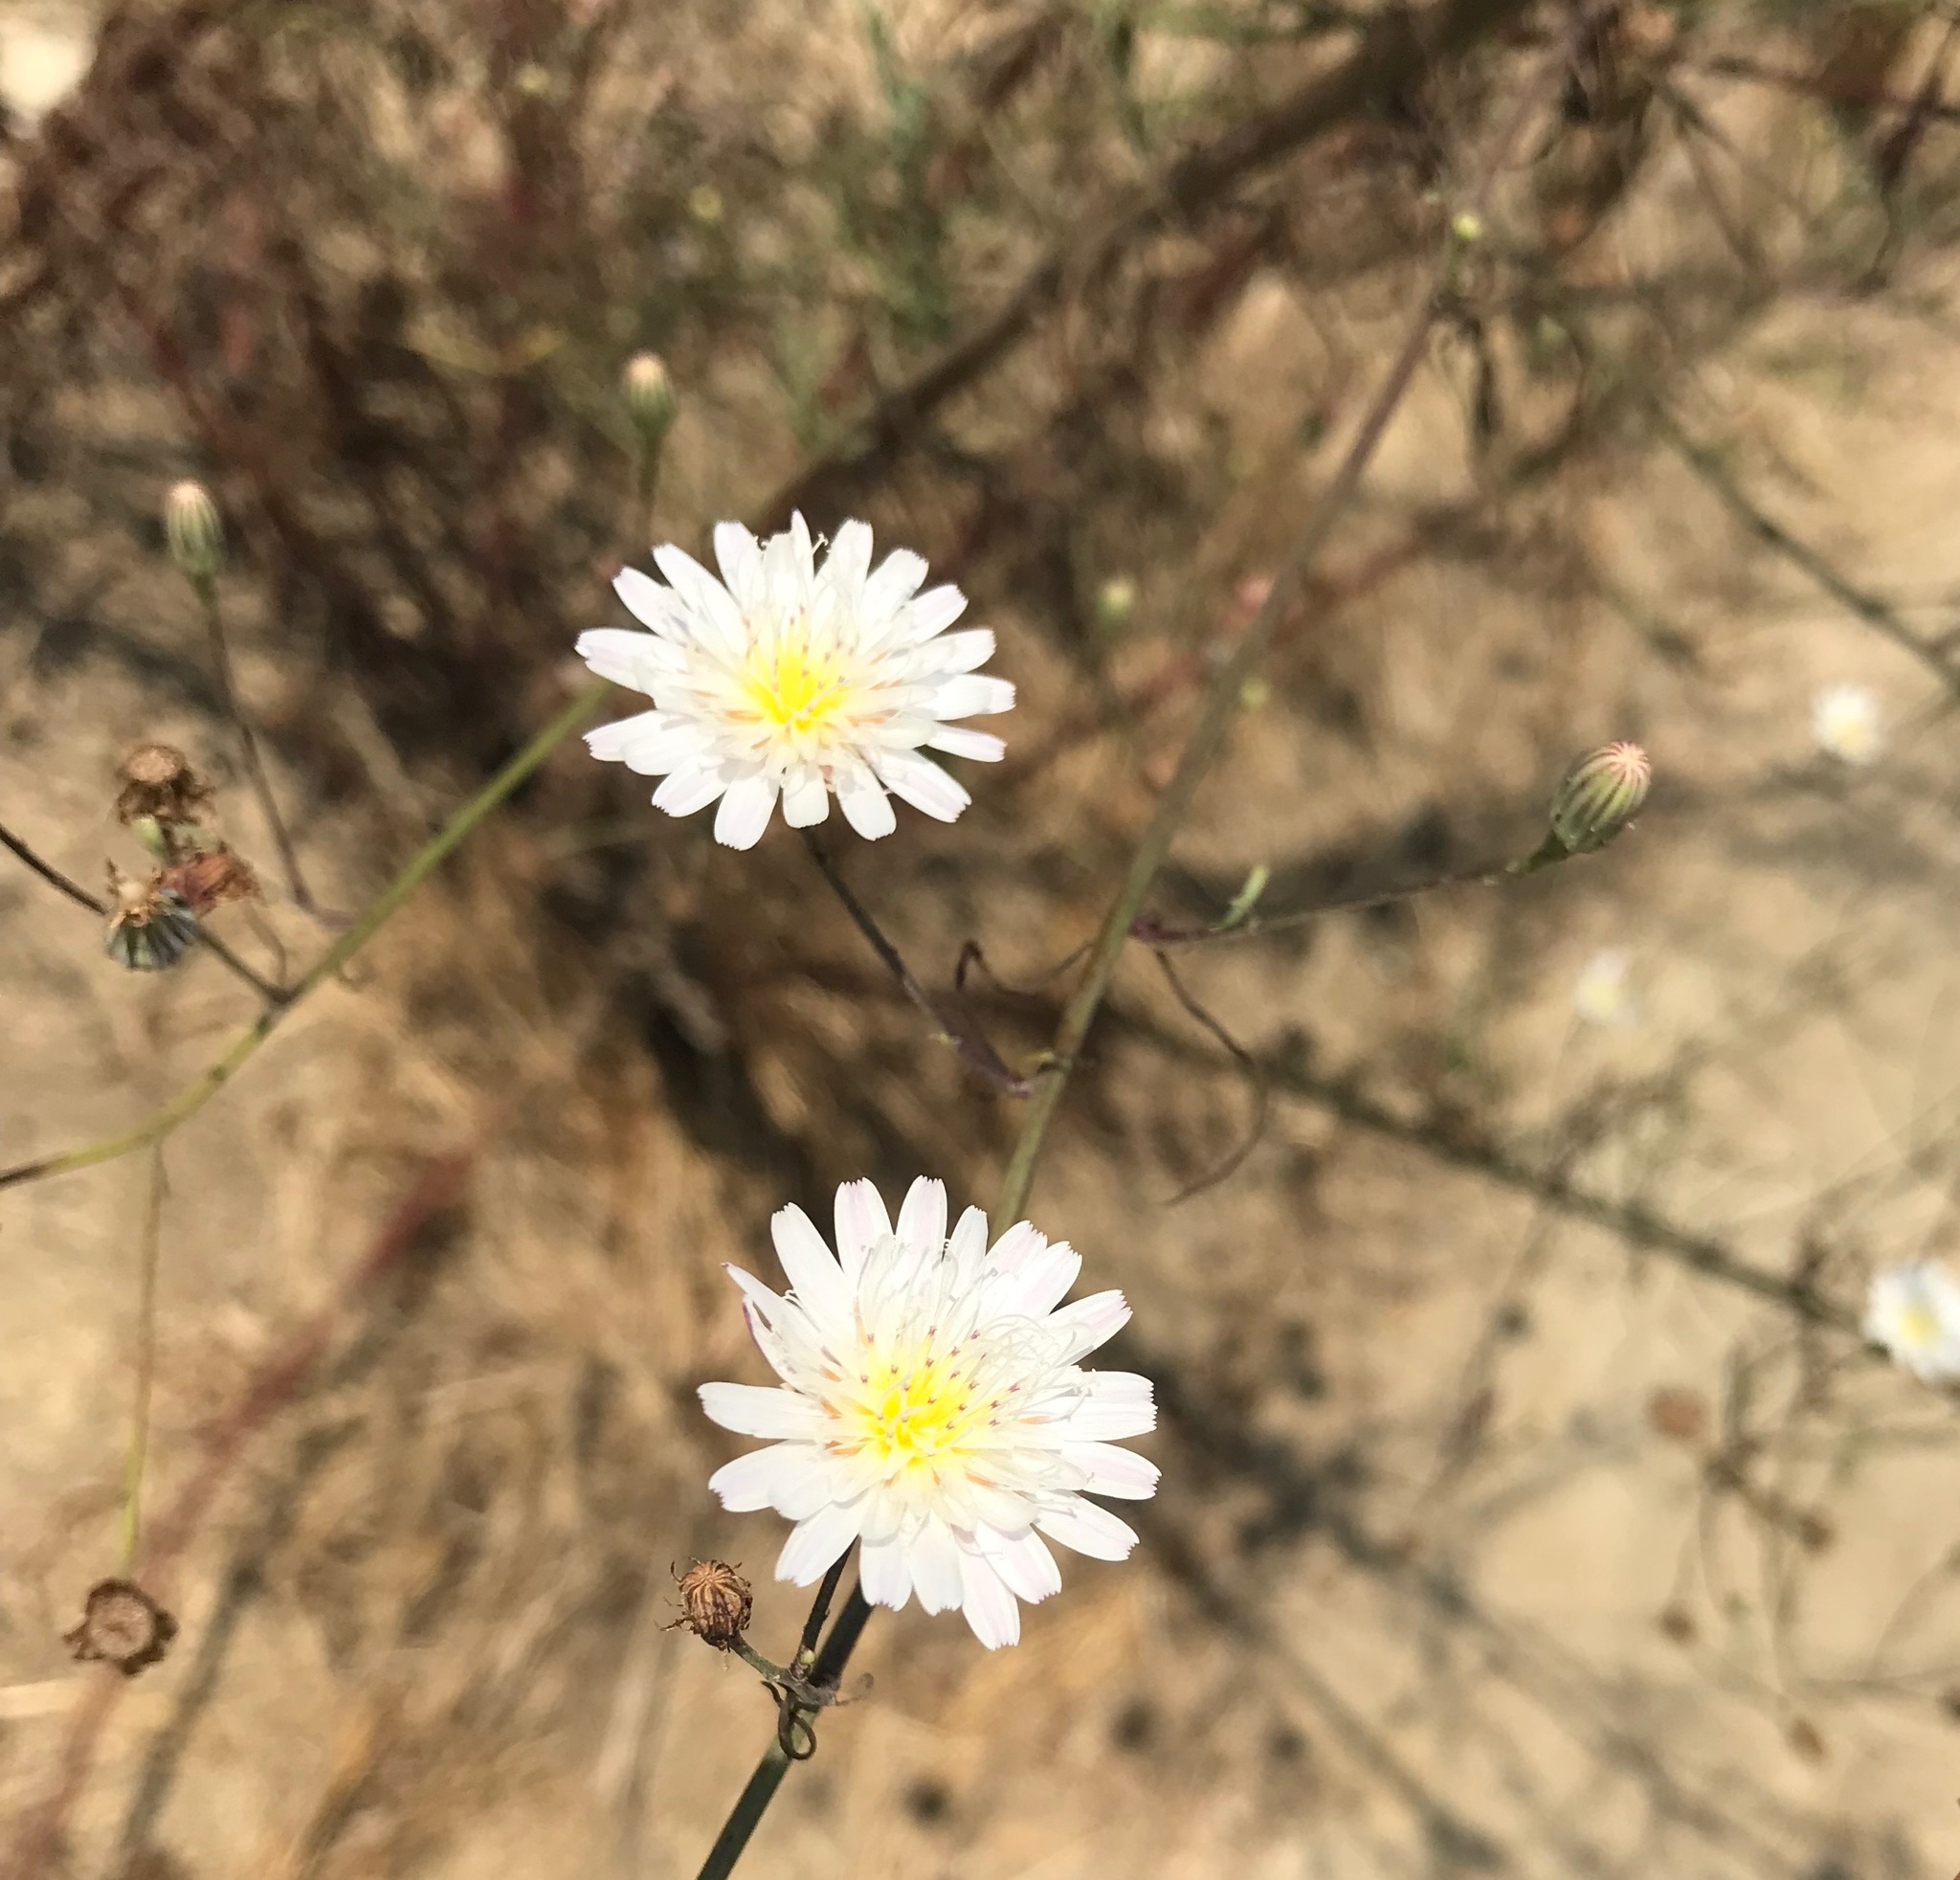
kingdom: Plantae
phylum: Tracheophyta
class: Magnoliopsida
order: Asterales
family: Asteraceae
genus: Malacothrix
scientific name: Malacothrix saxatilis
